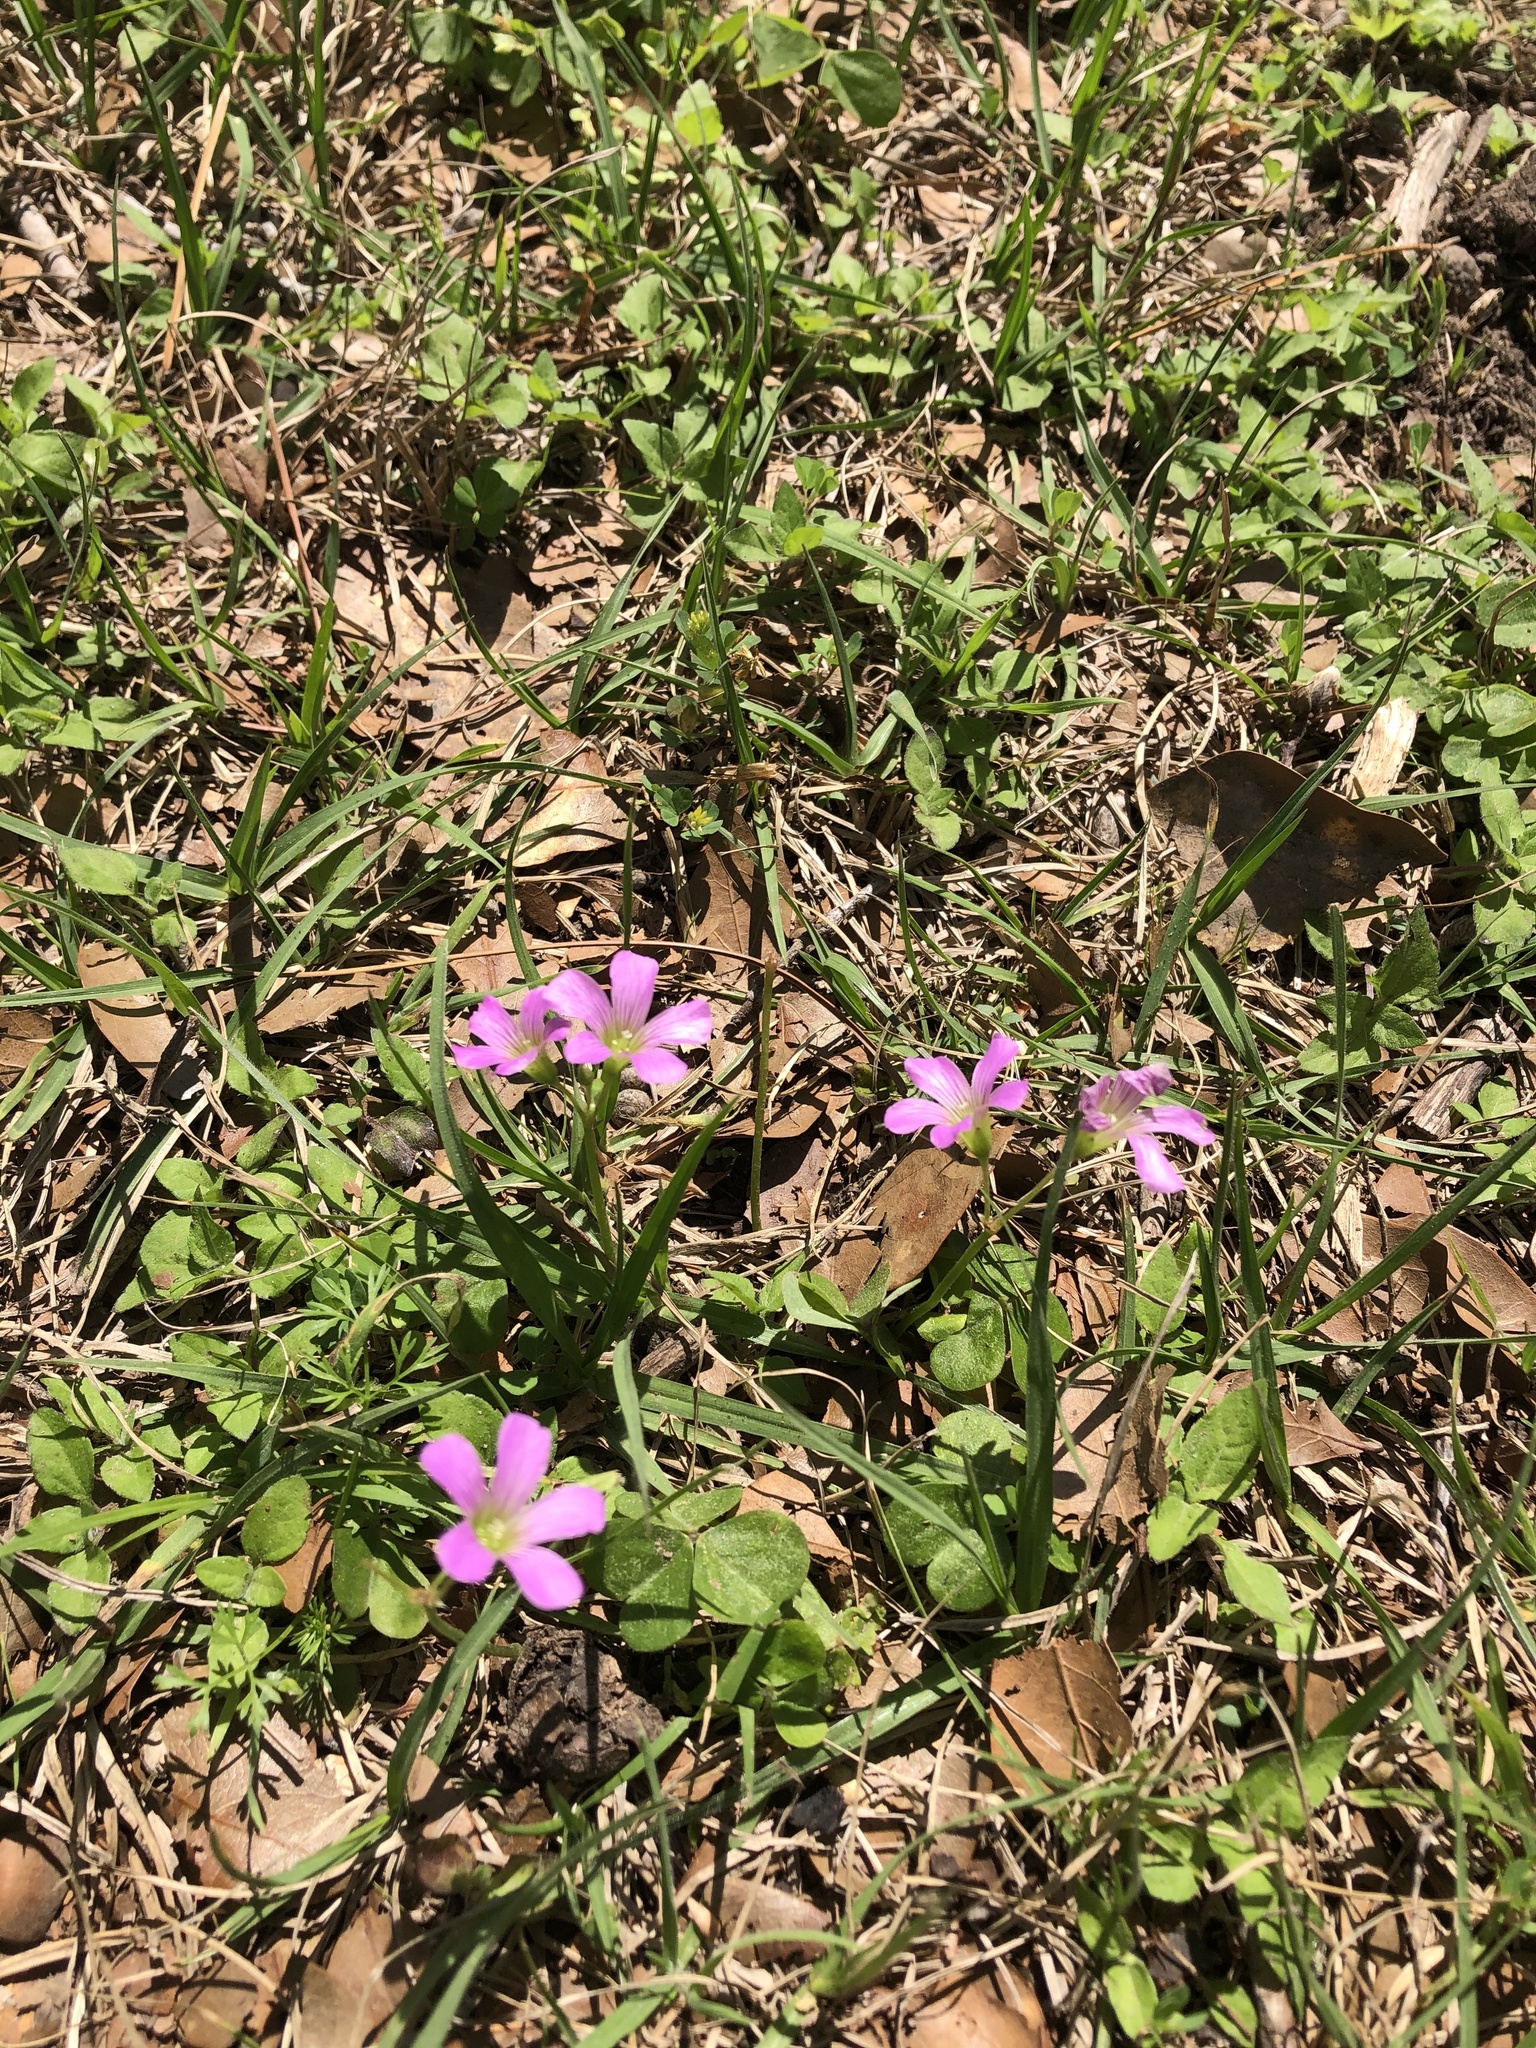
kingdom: Plantae
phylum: Tracheophyta
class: Magnoliopsida
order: Oxalidales
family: Oxalidaceae
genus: Oxalis
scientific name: Oxalis debilis
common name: Large-flowered pink-sorrel
